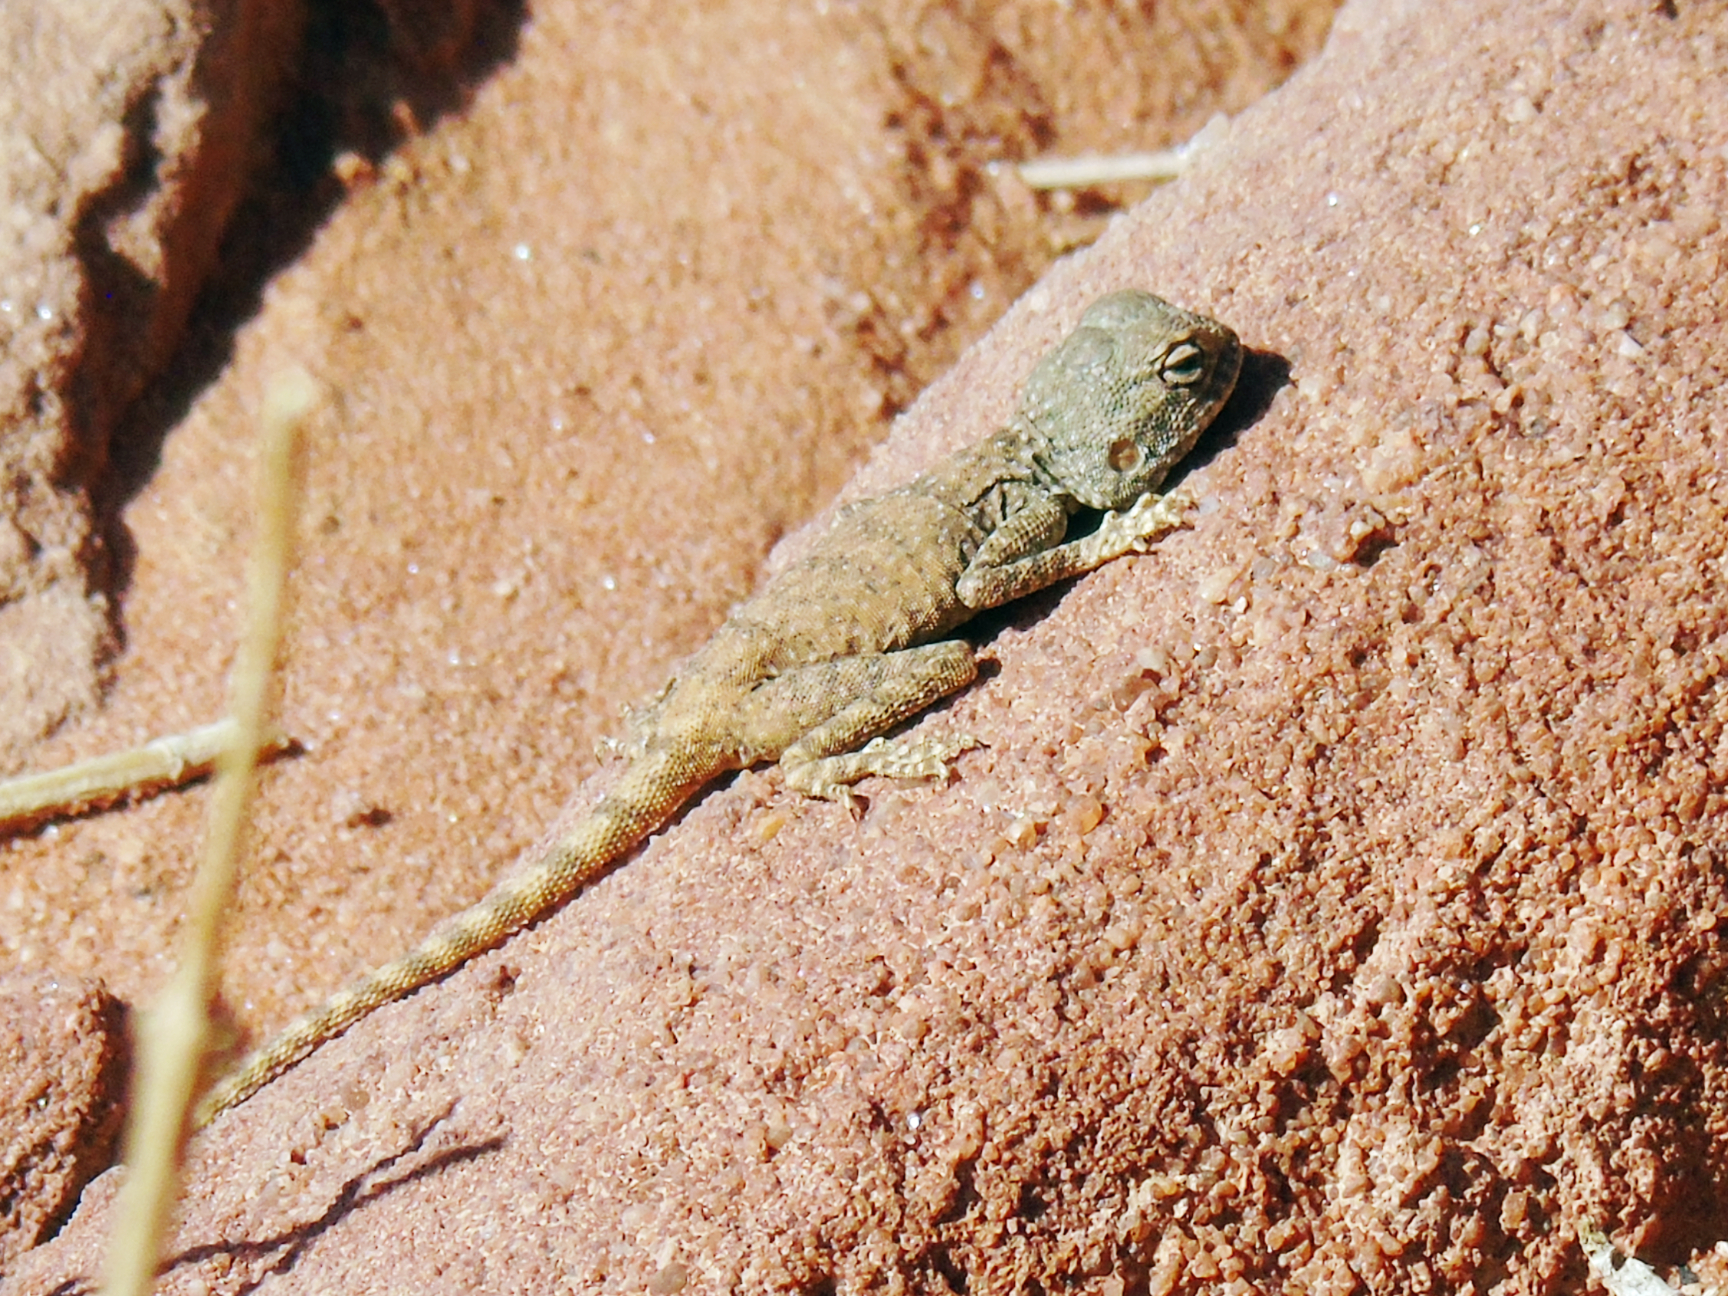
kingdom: Animalia
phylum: Chordata
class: Squamata
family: Agamidae
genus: Pseudotrapelus
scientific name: Pseudotrapelus sinaitus
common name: Sinai agama
